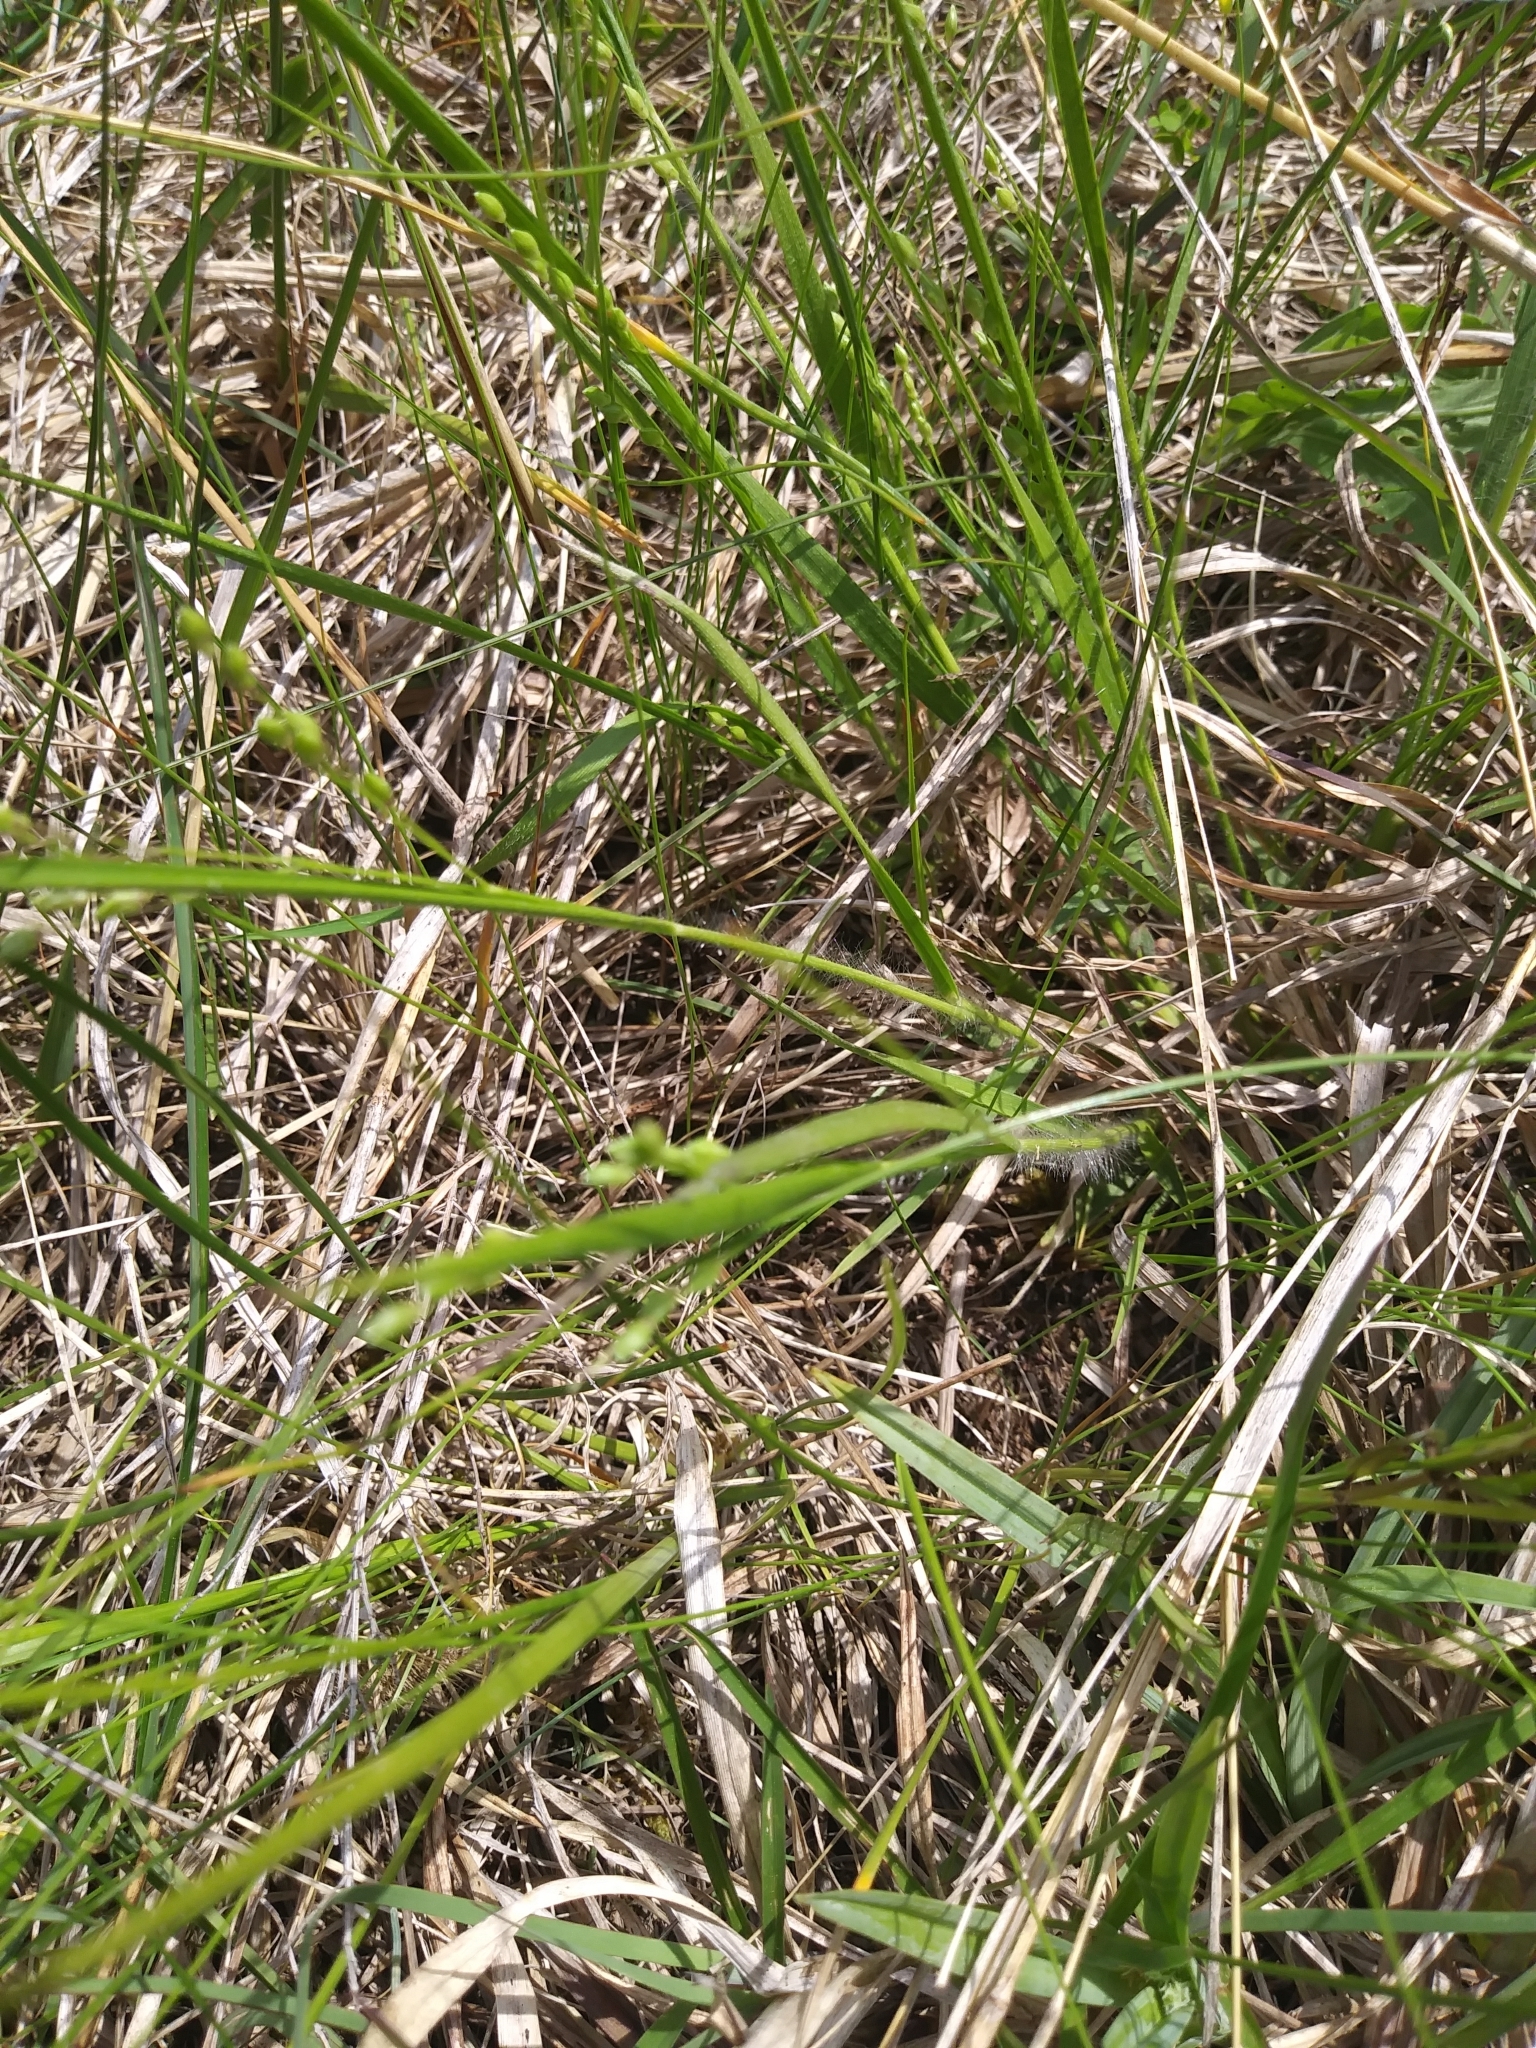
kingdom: Plantae
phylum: Tracheophyta
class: Liliopsida
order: Poales
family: Poaceae
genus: Dichanthelium
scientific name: Dichanthelium depauperatum
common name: Depauperate panicgrass
